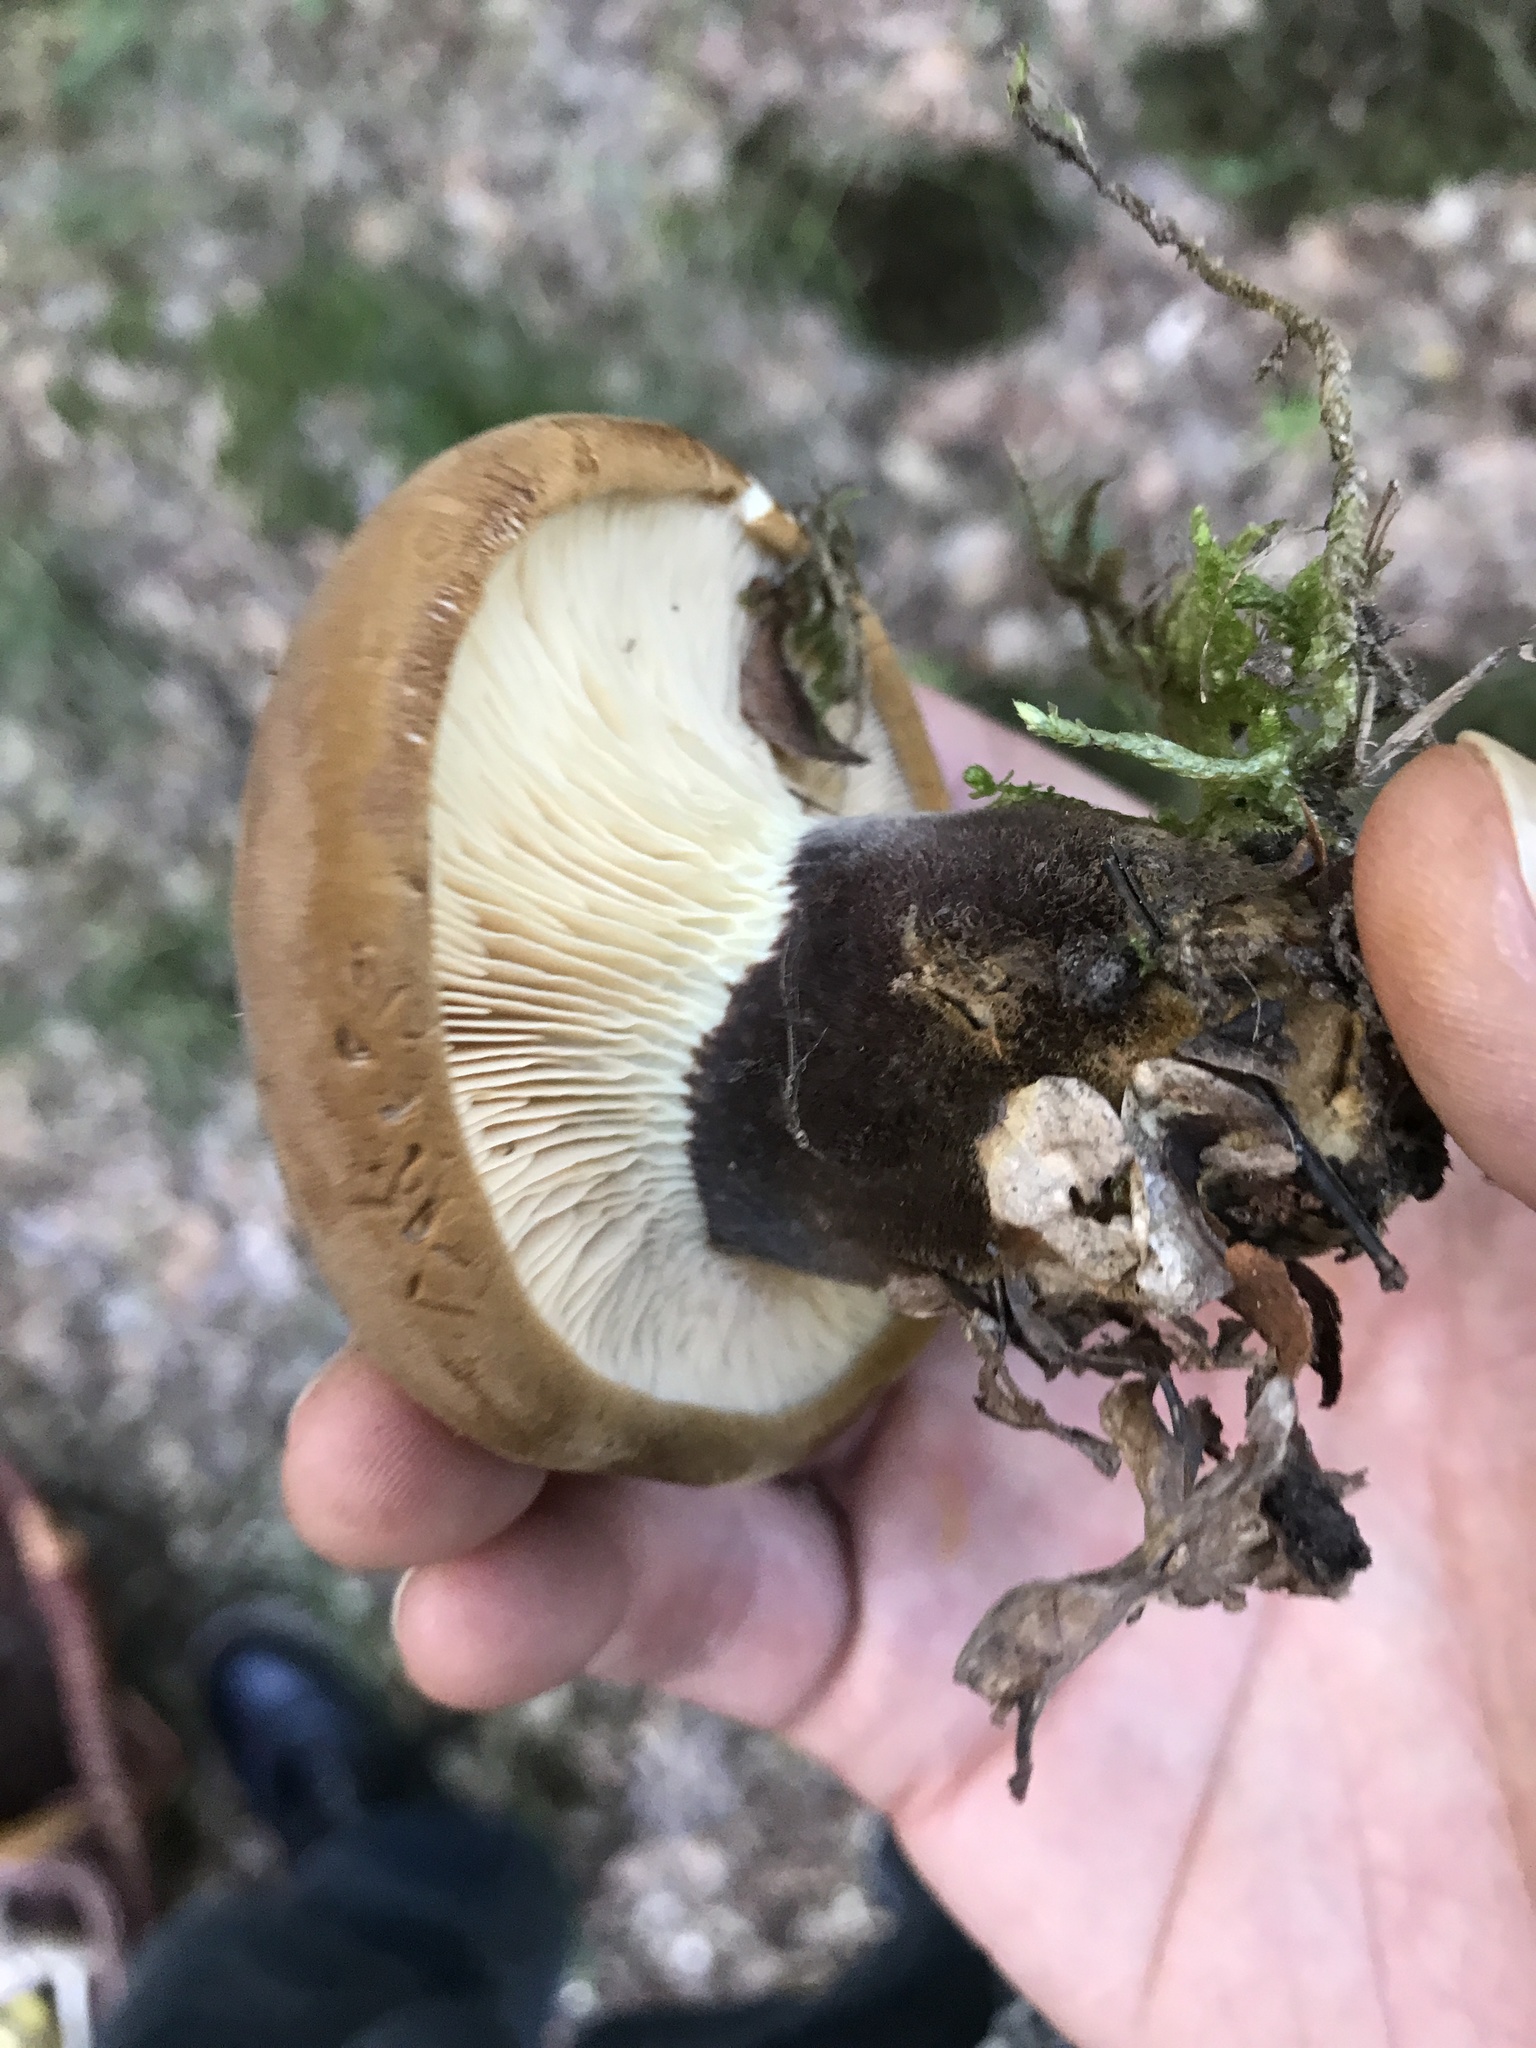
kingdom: Fungi
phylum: Basidiomycota
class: Agaricomycetes
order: Boletales
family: Tapinellaceae
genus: Tapinella
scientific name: Tapinella atrotomentosa
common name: Velvet rollrim
